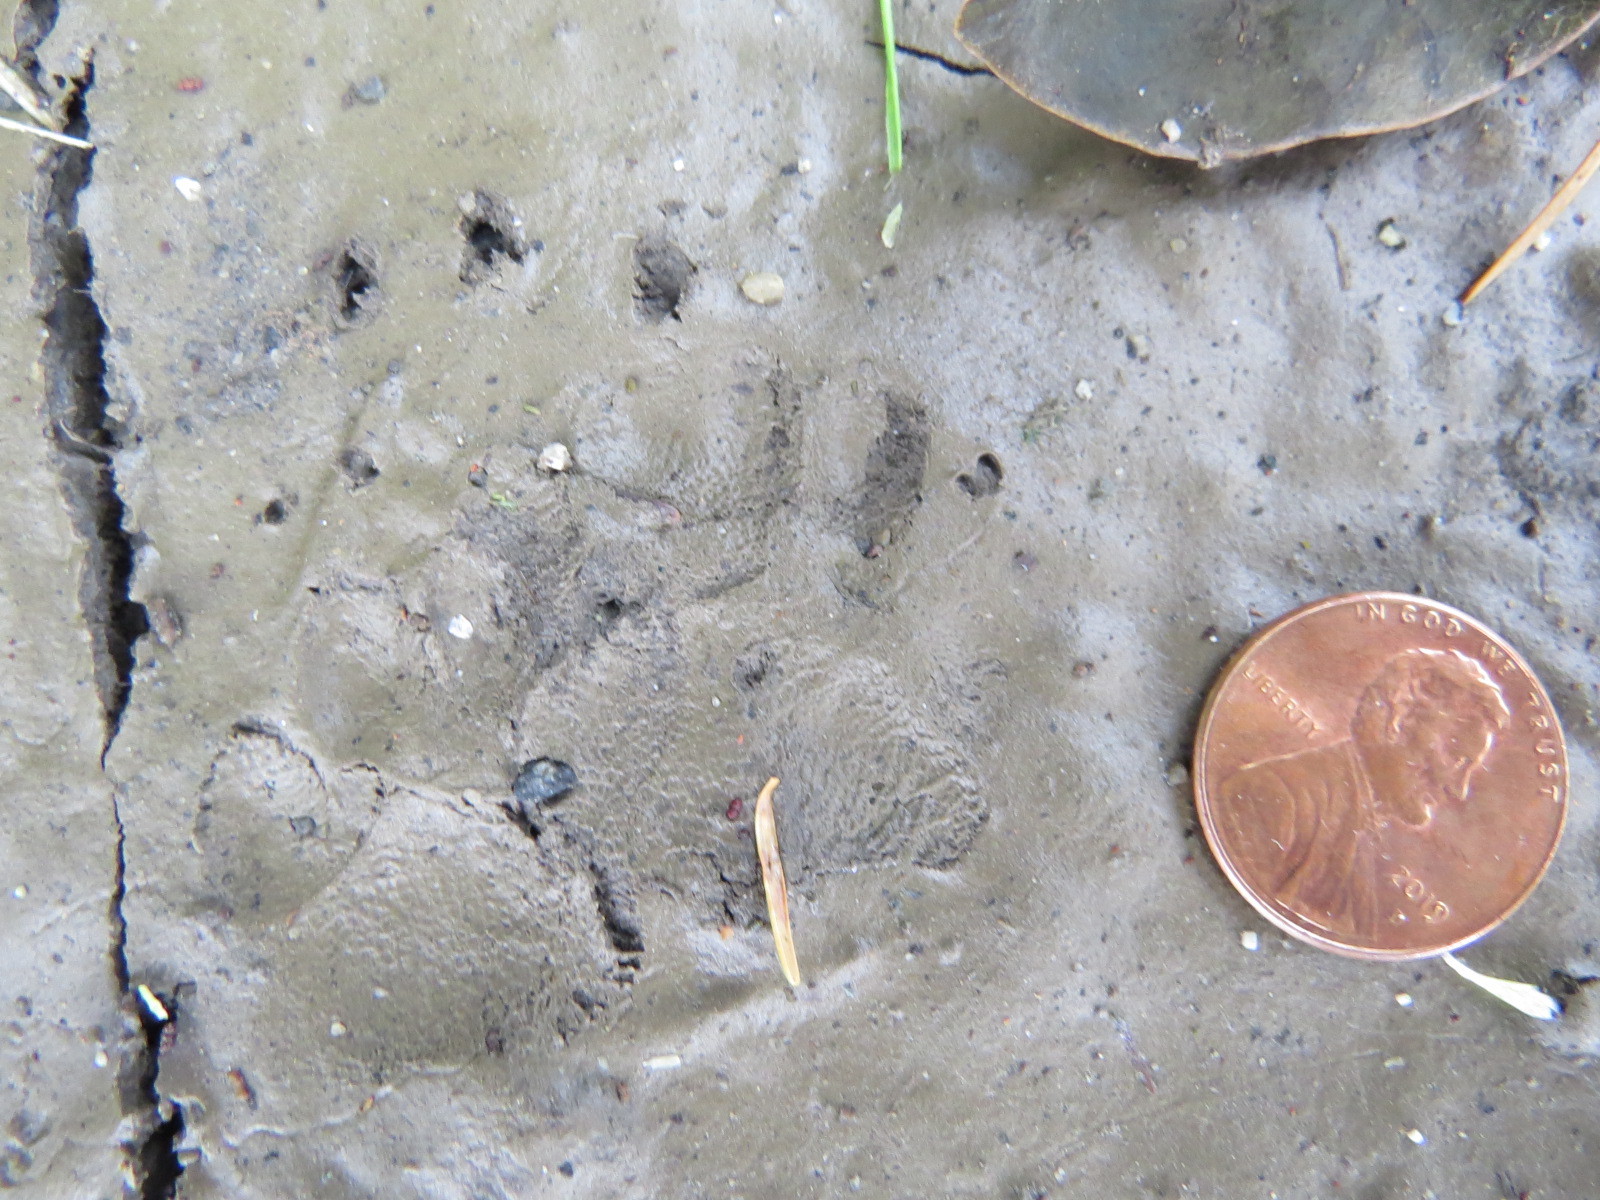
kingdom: Animalia
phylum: Chordata
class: Mammalia
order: Carnivora
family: Mephitidae
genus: Mephitis
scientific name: Mephitis mephitis
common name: Striped skunk
